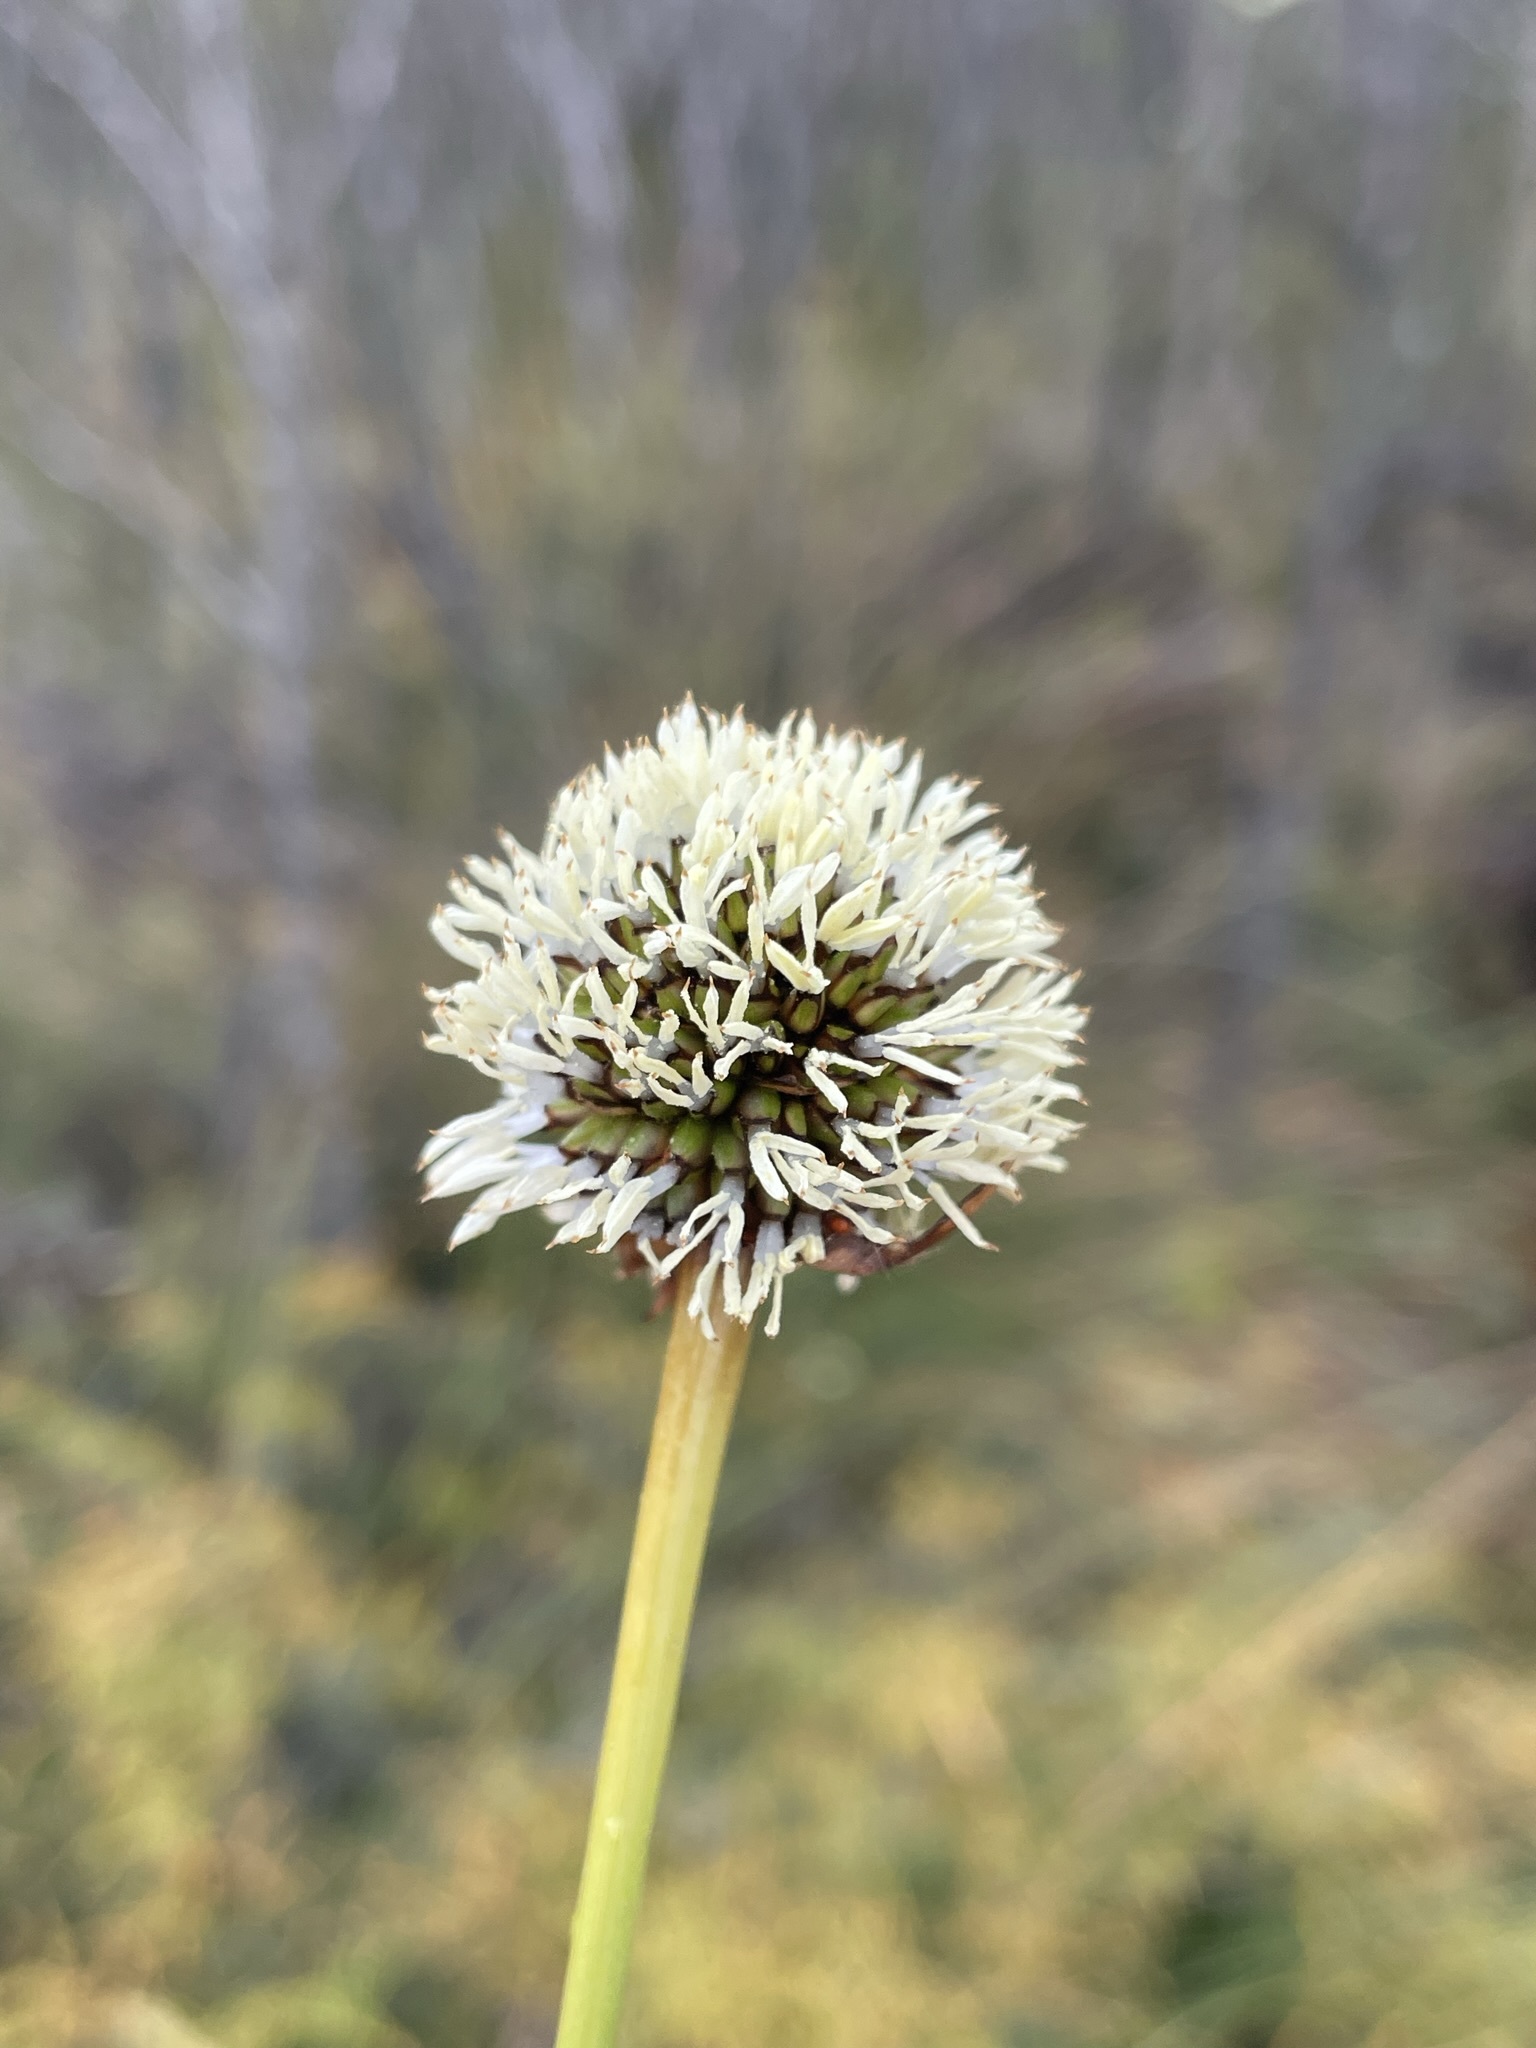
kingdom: Plantae
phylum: Tracheophyta
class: Liliopsida
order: Poales
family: Cyperaceae
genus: Gymnoschoenus
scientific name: Gymnoschoenus sphaerocephalus
